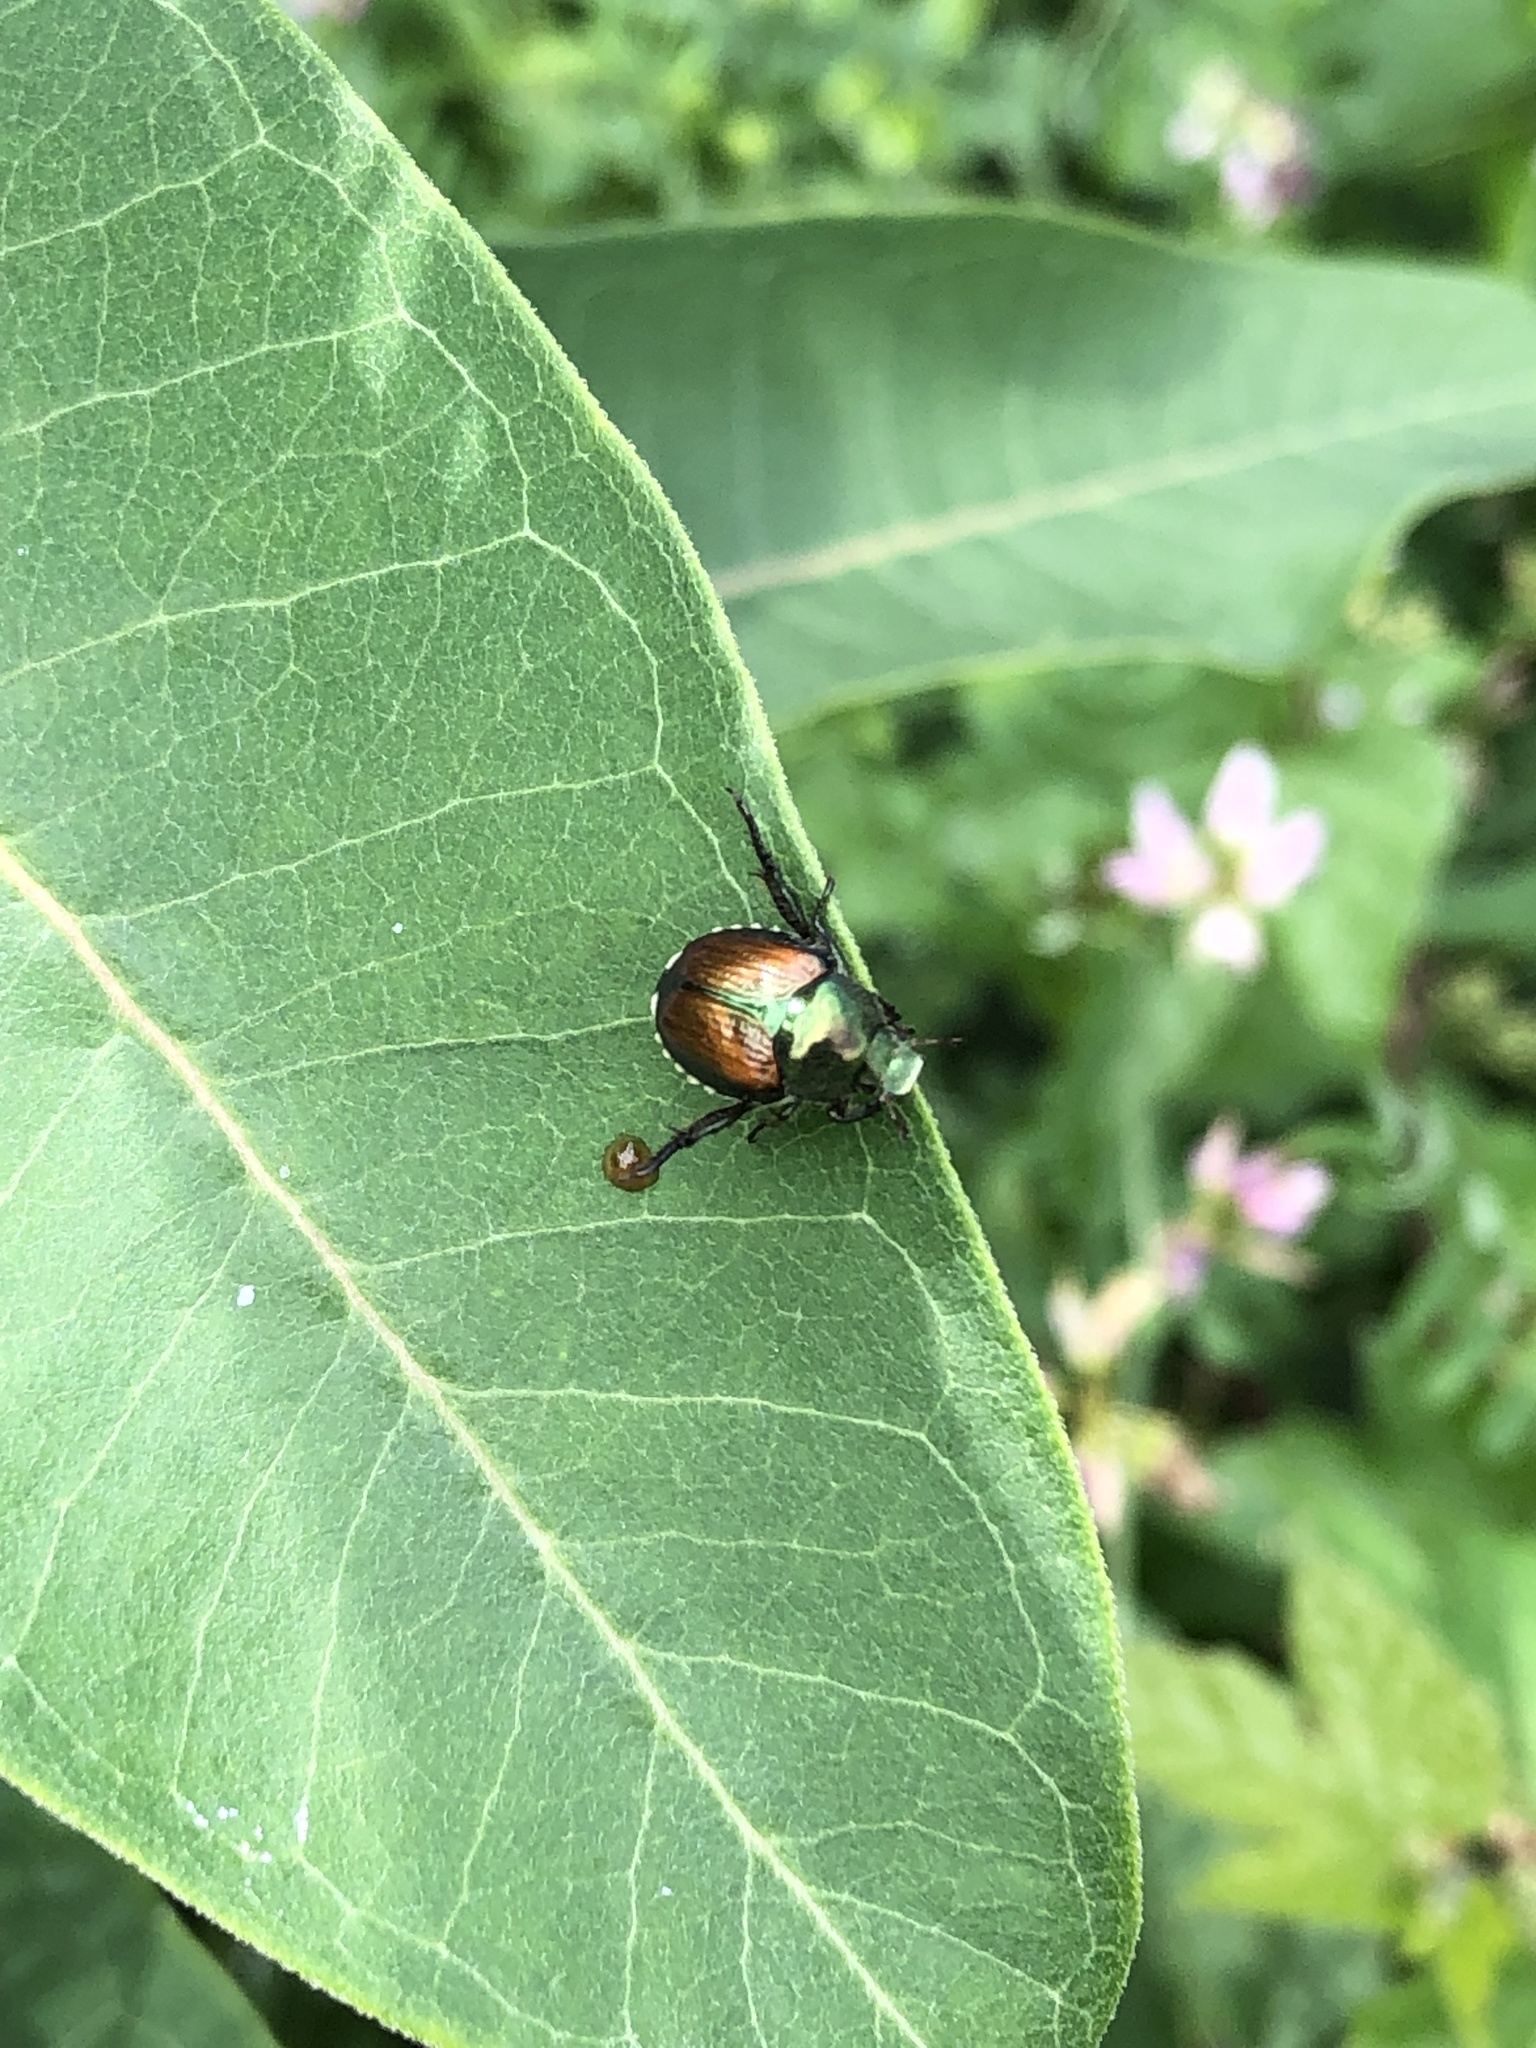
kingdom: Animalia
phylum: Arthropoda
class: Insecta
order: Coleoptera
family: Scarabaeidae
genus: Popillia
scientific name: Popillia japonica
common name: Japanese beetle
